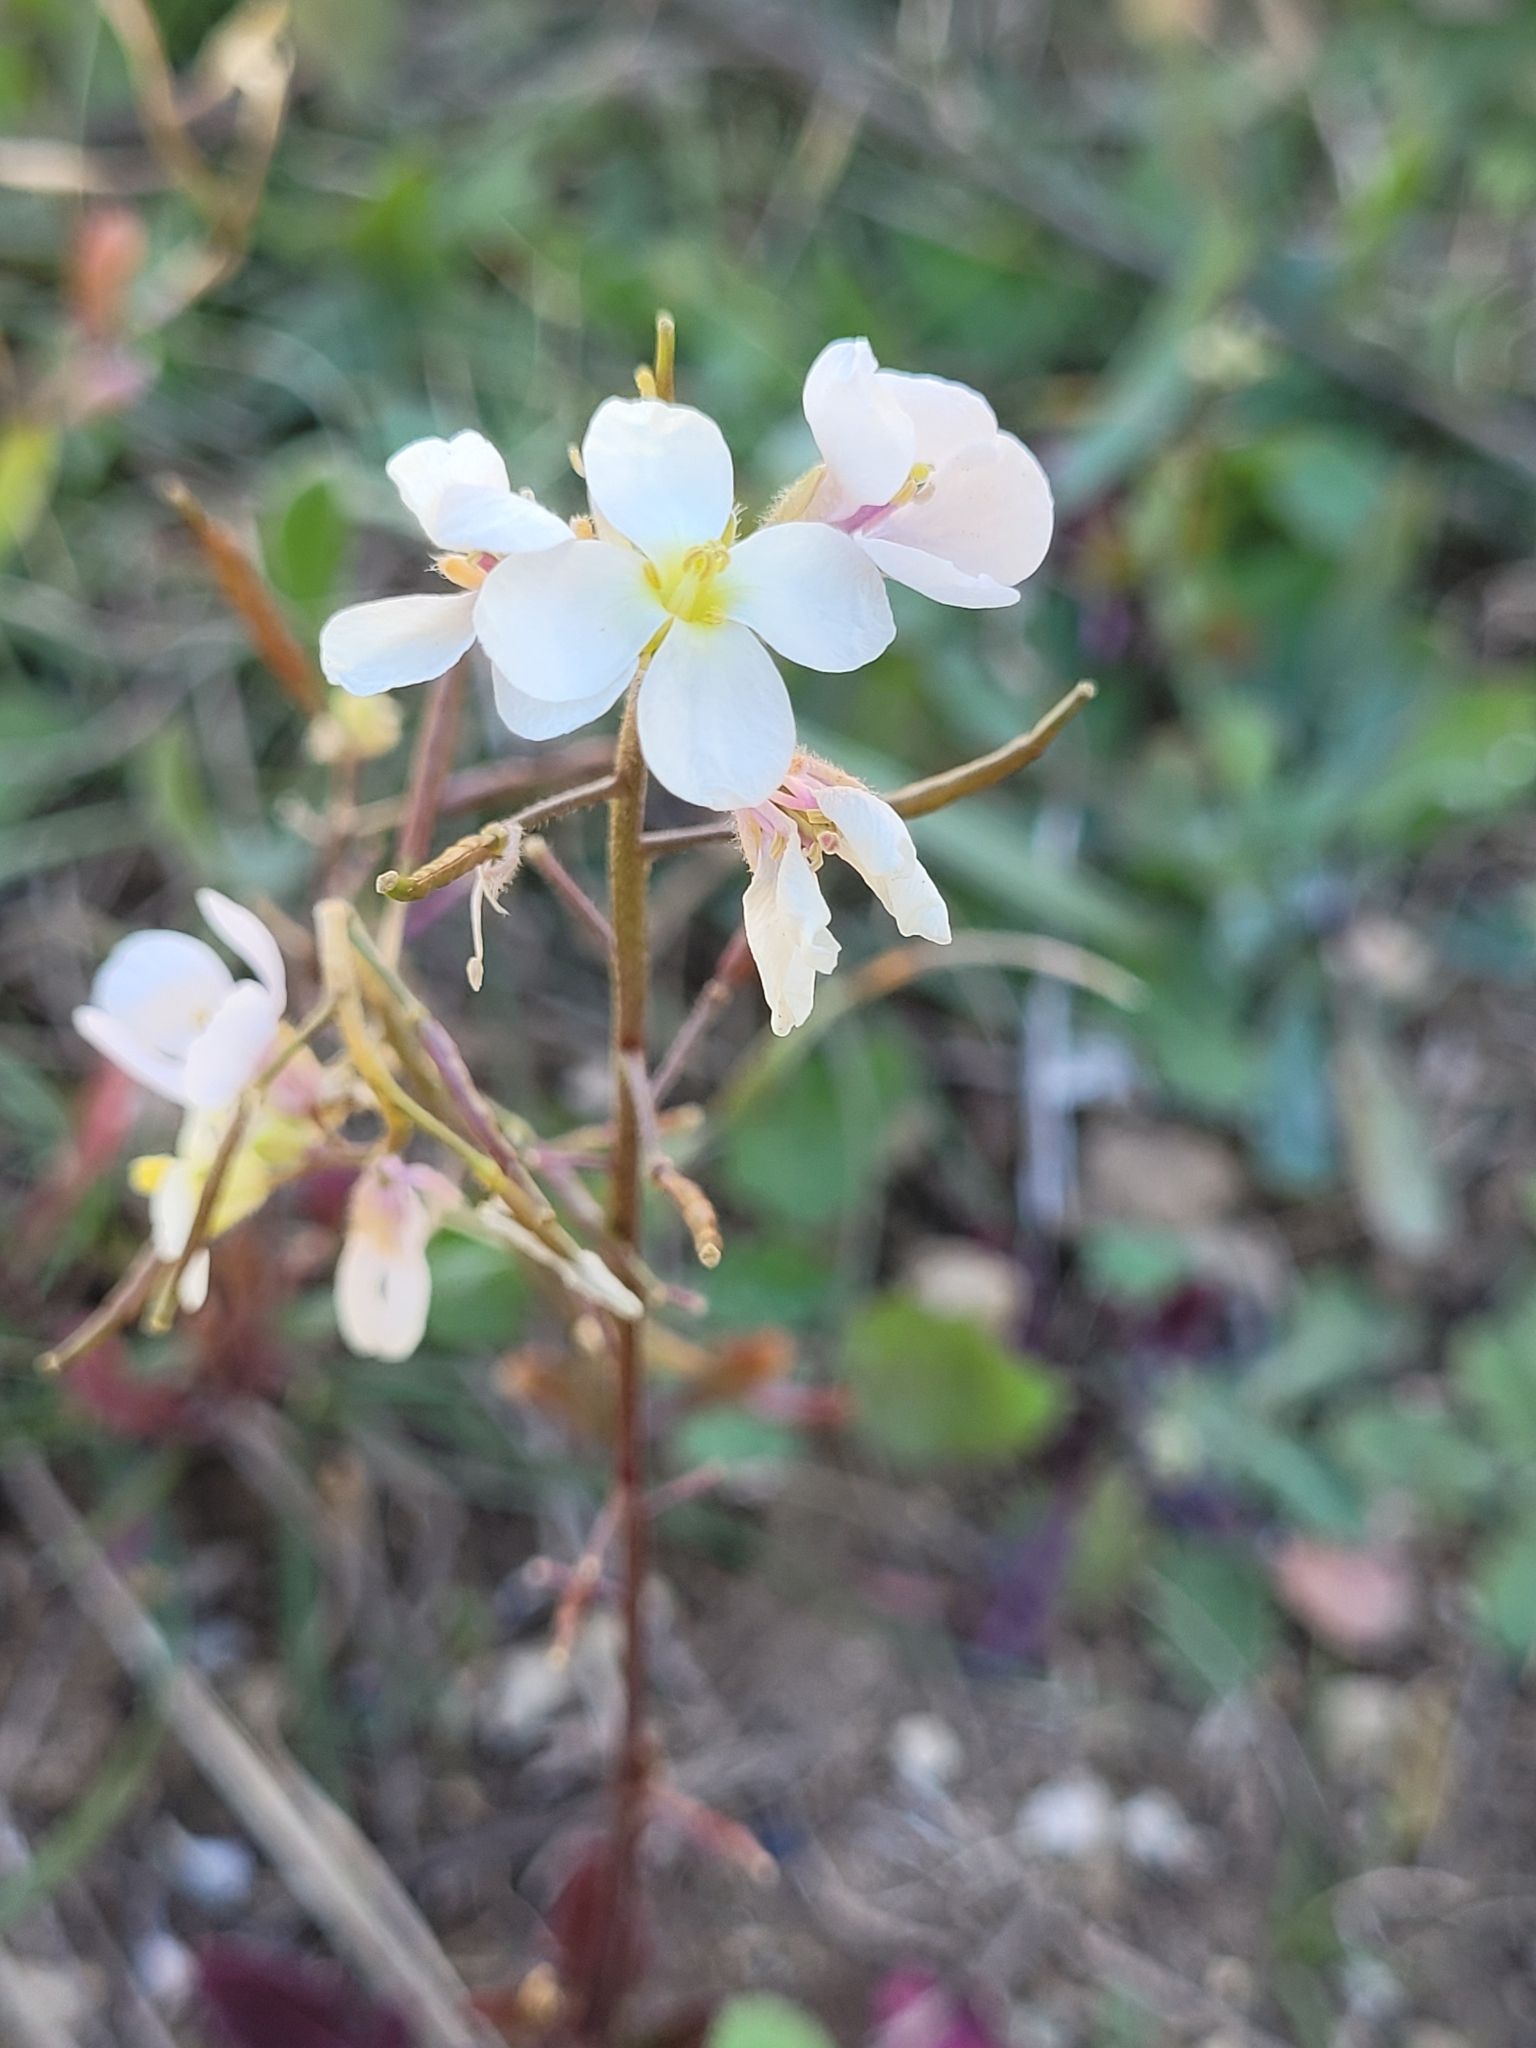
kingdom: Plantae
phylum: Tracheophyta
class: Magnoliopsida
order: Brassicales
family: Brassicaceae
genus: Diplotaxis
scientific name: Diplotaxis erucoides
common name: White rocket
